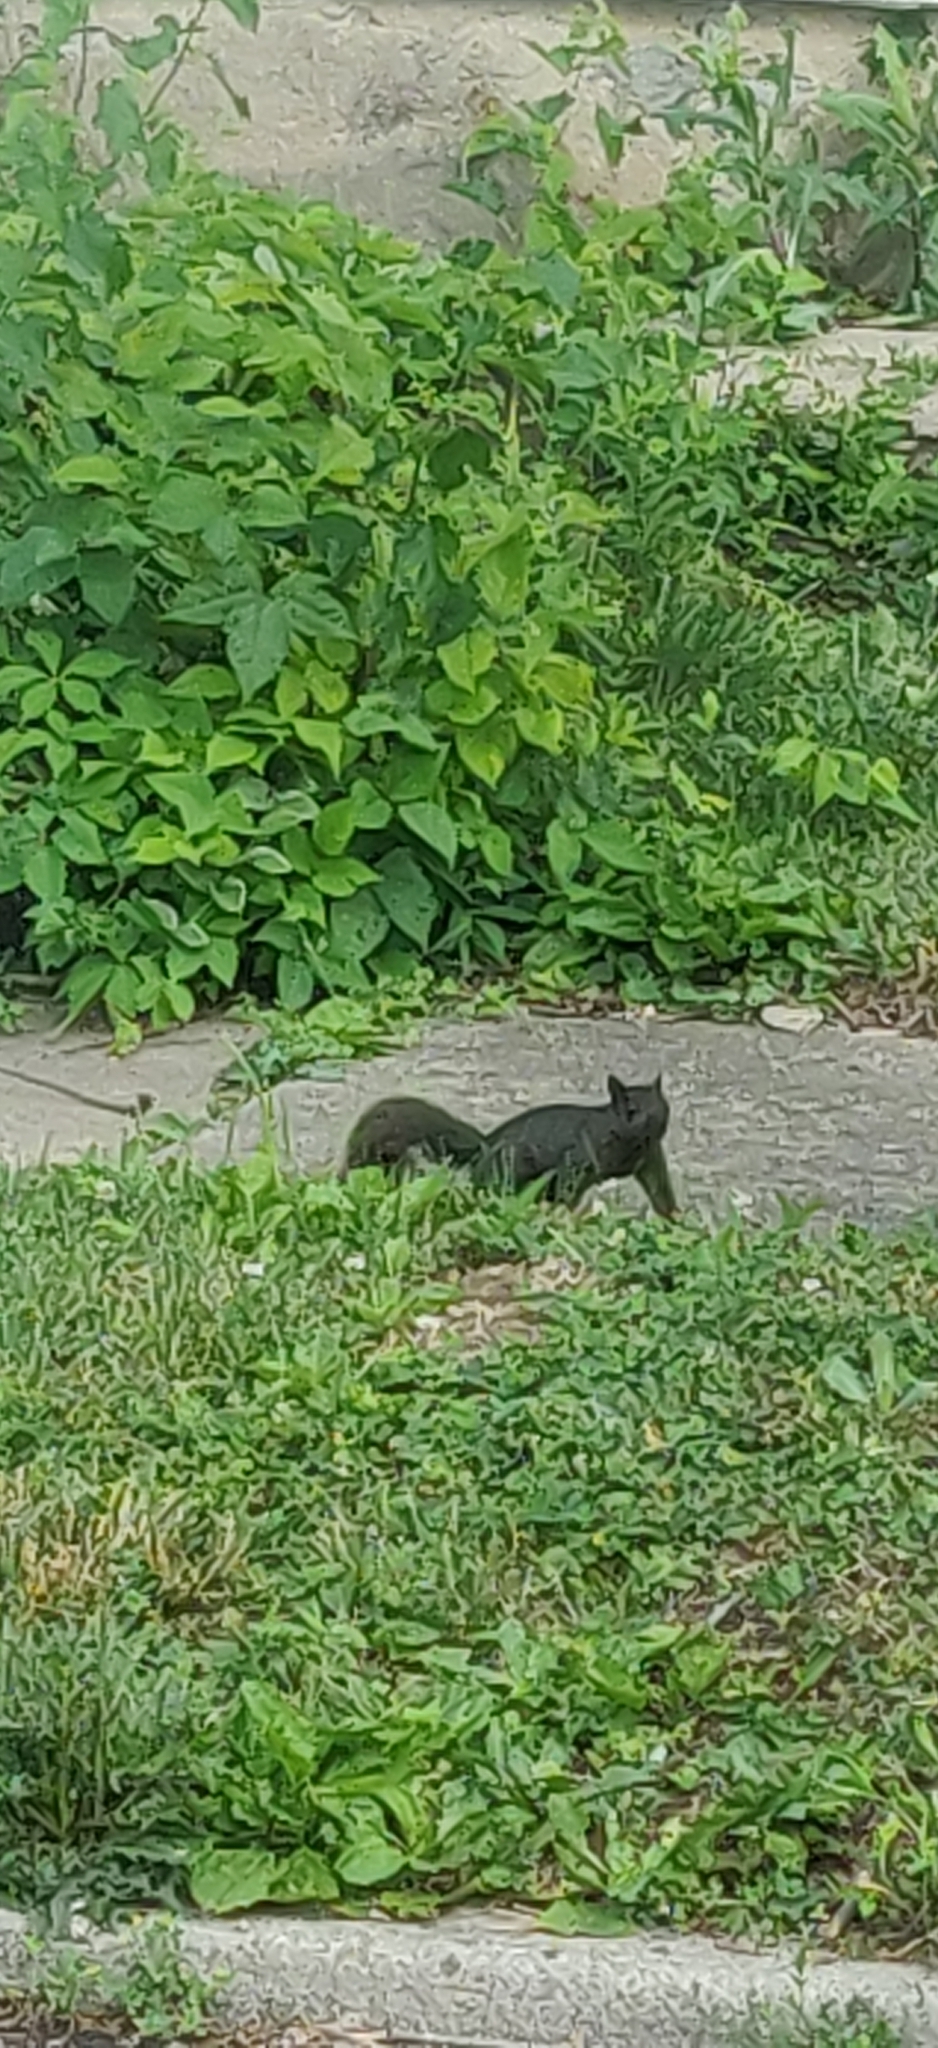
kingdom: Animalia
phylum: Chordata
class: Mammalia
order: Rodentia
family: Sciuridae
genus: Sciurus
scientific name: Sciurus carolinensis
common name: Eastern gray squirrel
